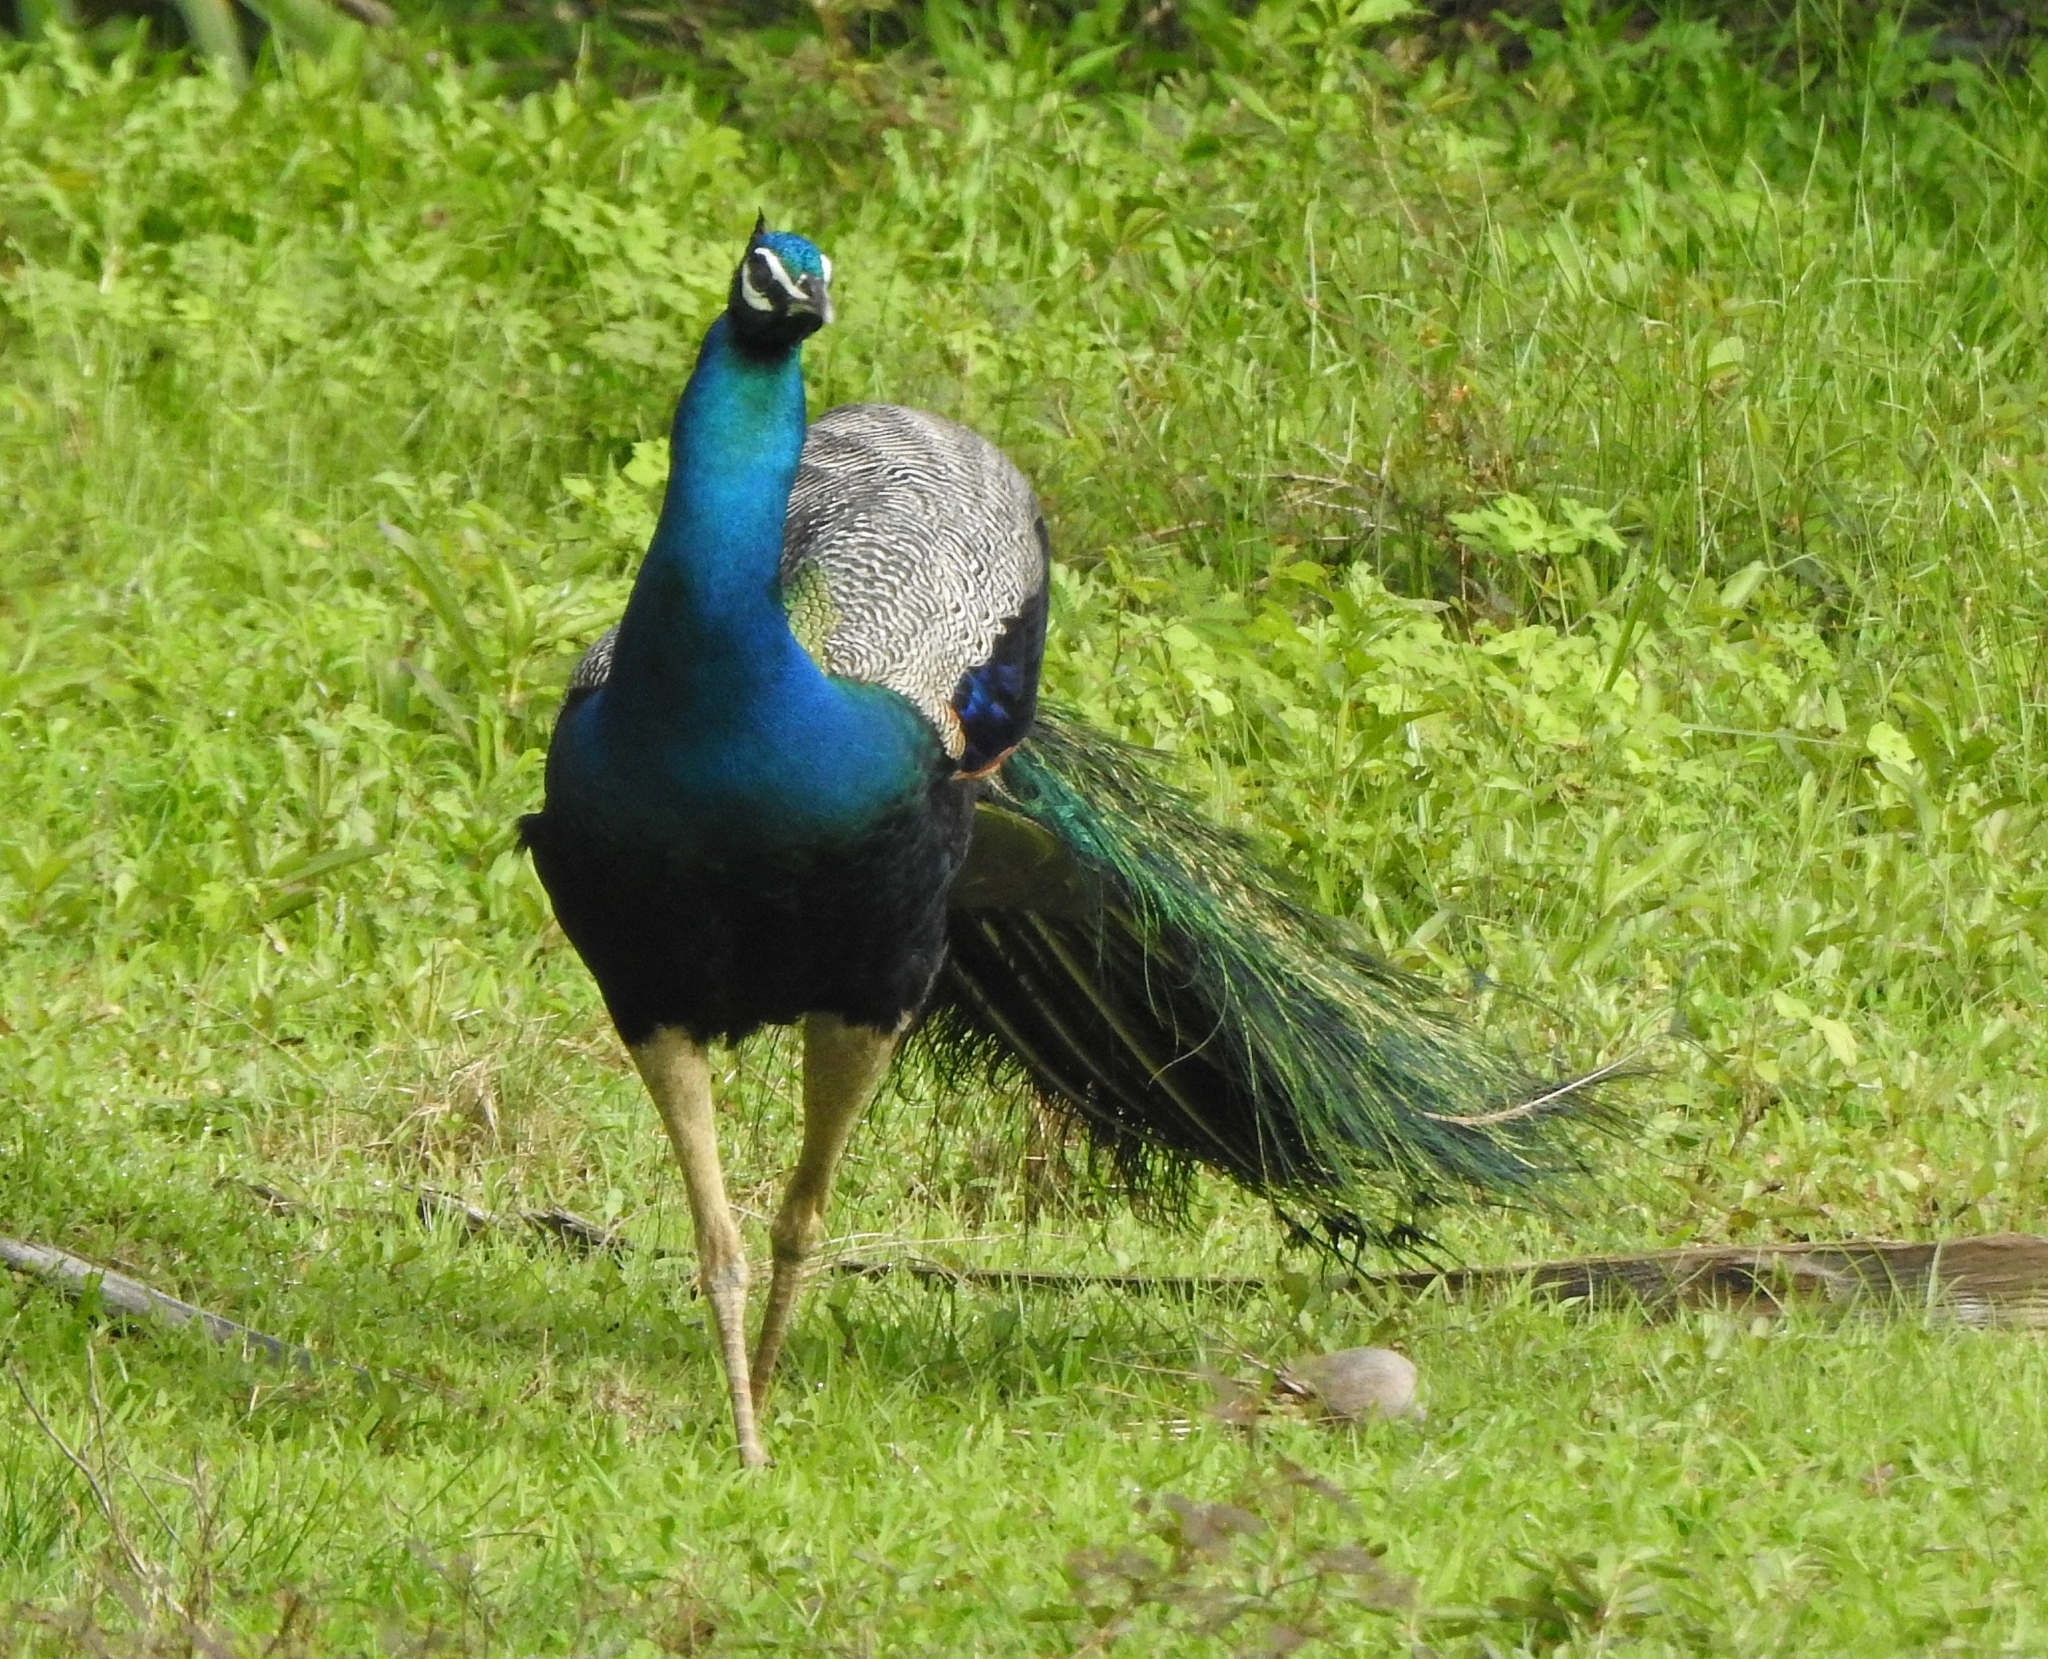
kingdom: Animalia
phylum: Chordata
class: Aves
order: Galliformes
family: Phasianidae
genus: Pavo
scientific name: Pavo cristatus
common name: Indian peafowl
